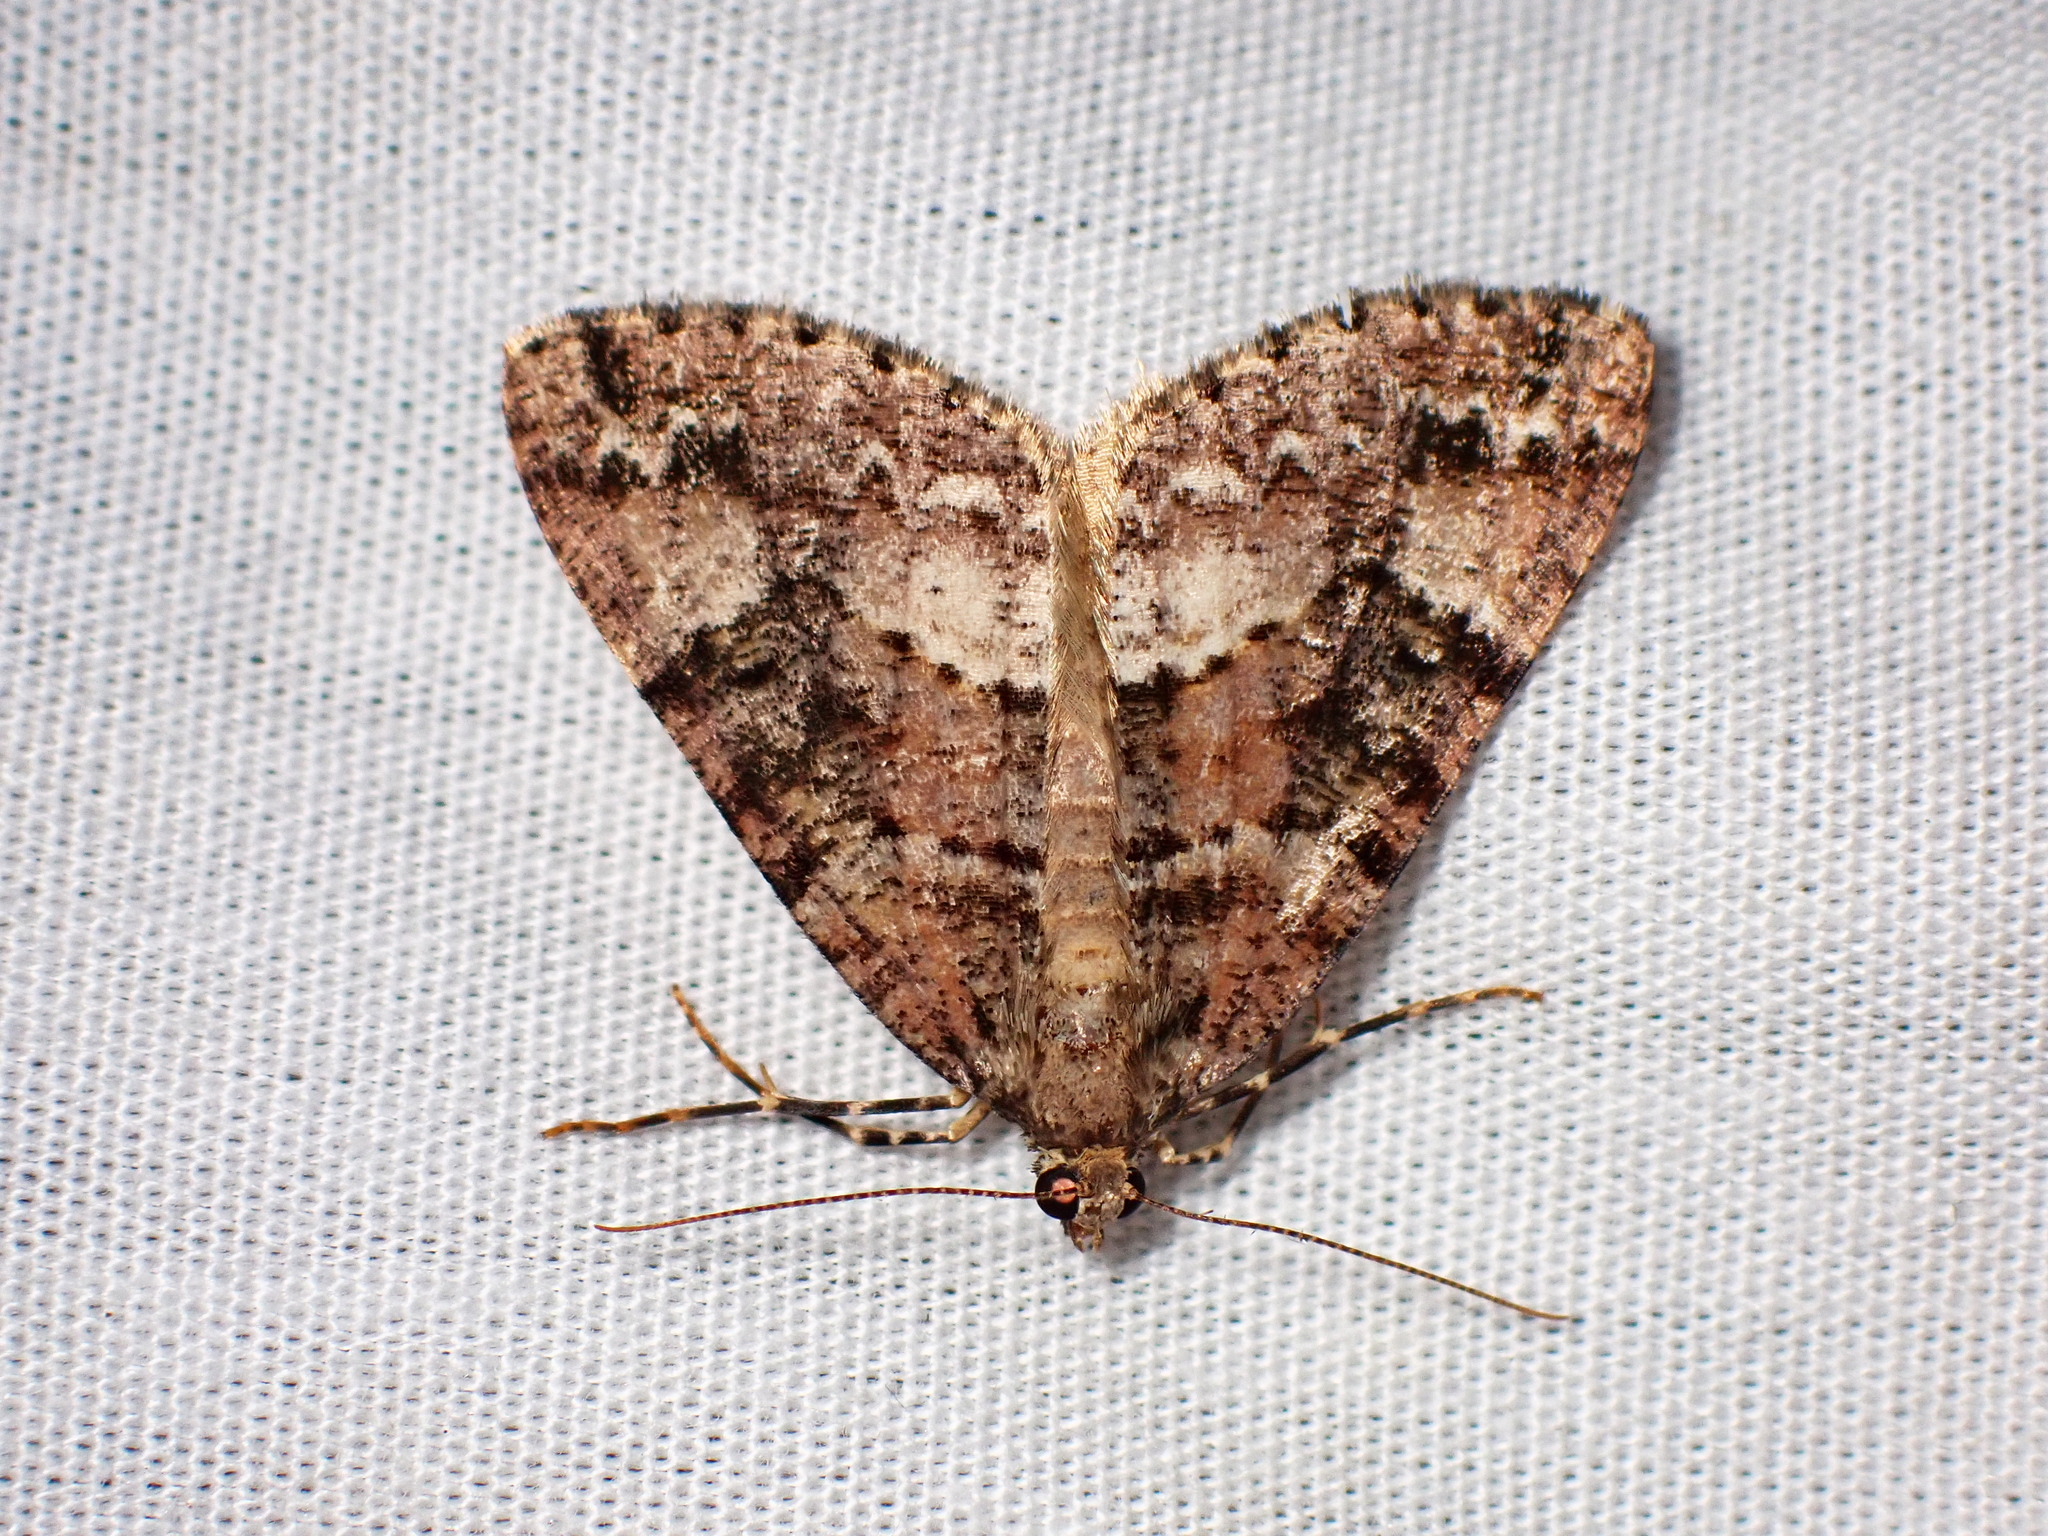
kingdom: Animalia
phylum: Arthropoda
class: Insecta
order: Lepidoptera
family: Geometridae
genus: Pseudocoremia
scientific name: Pseudocoremia productata
